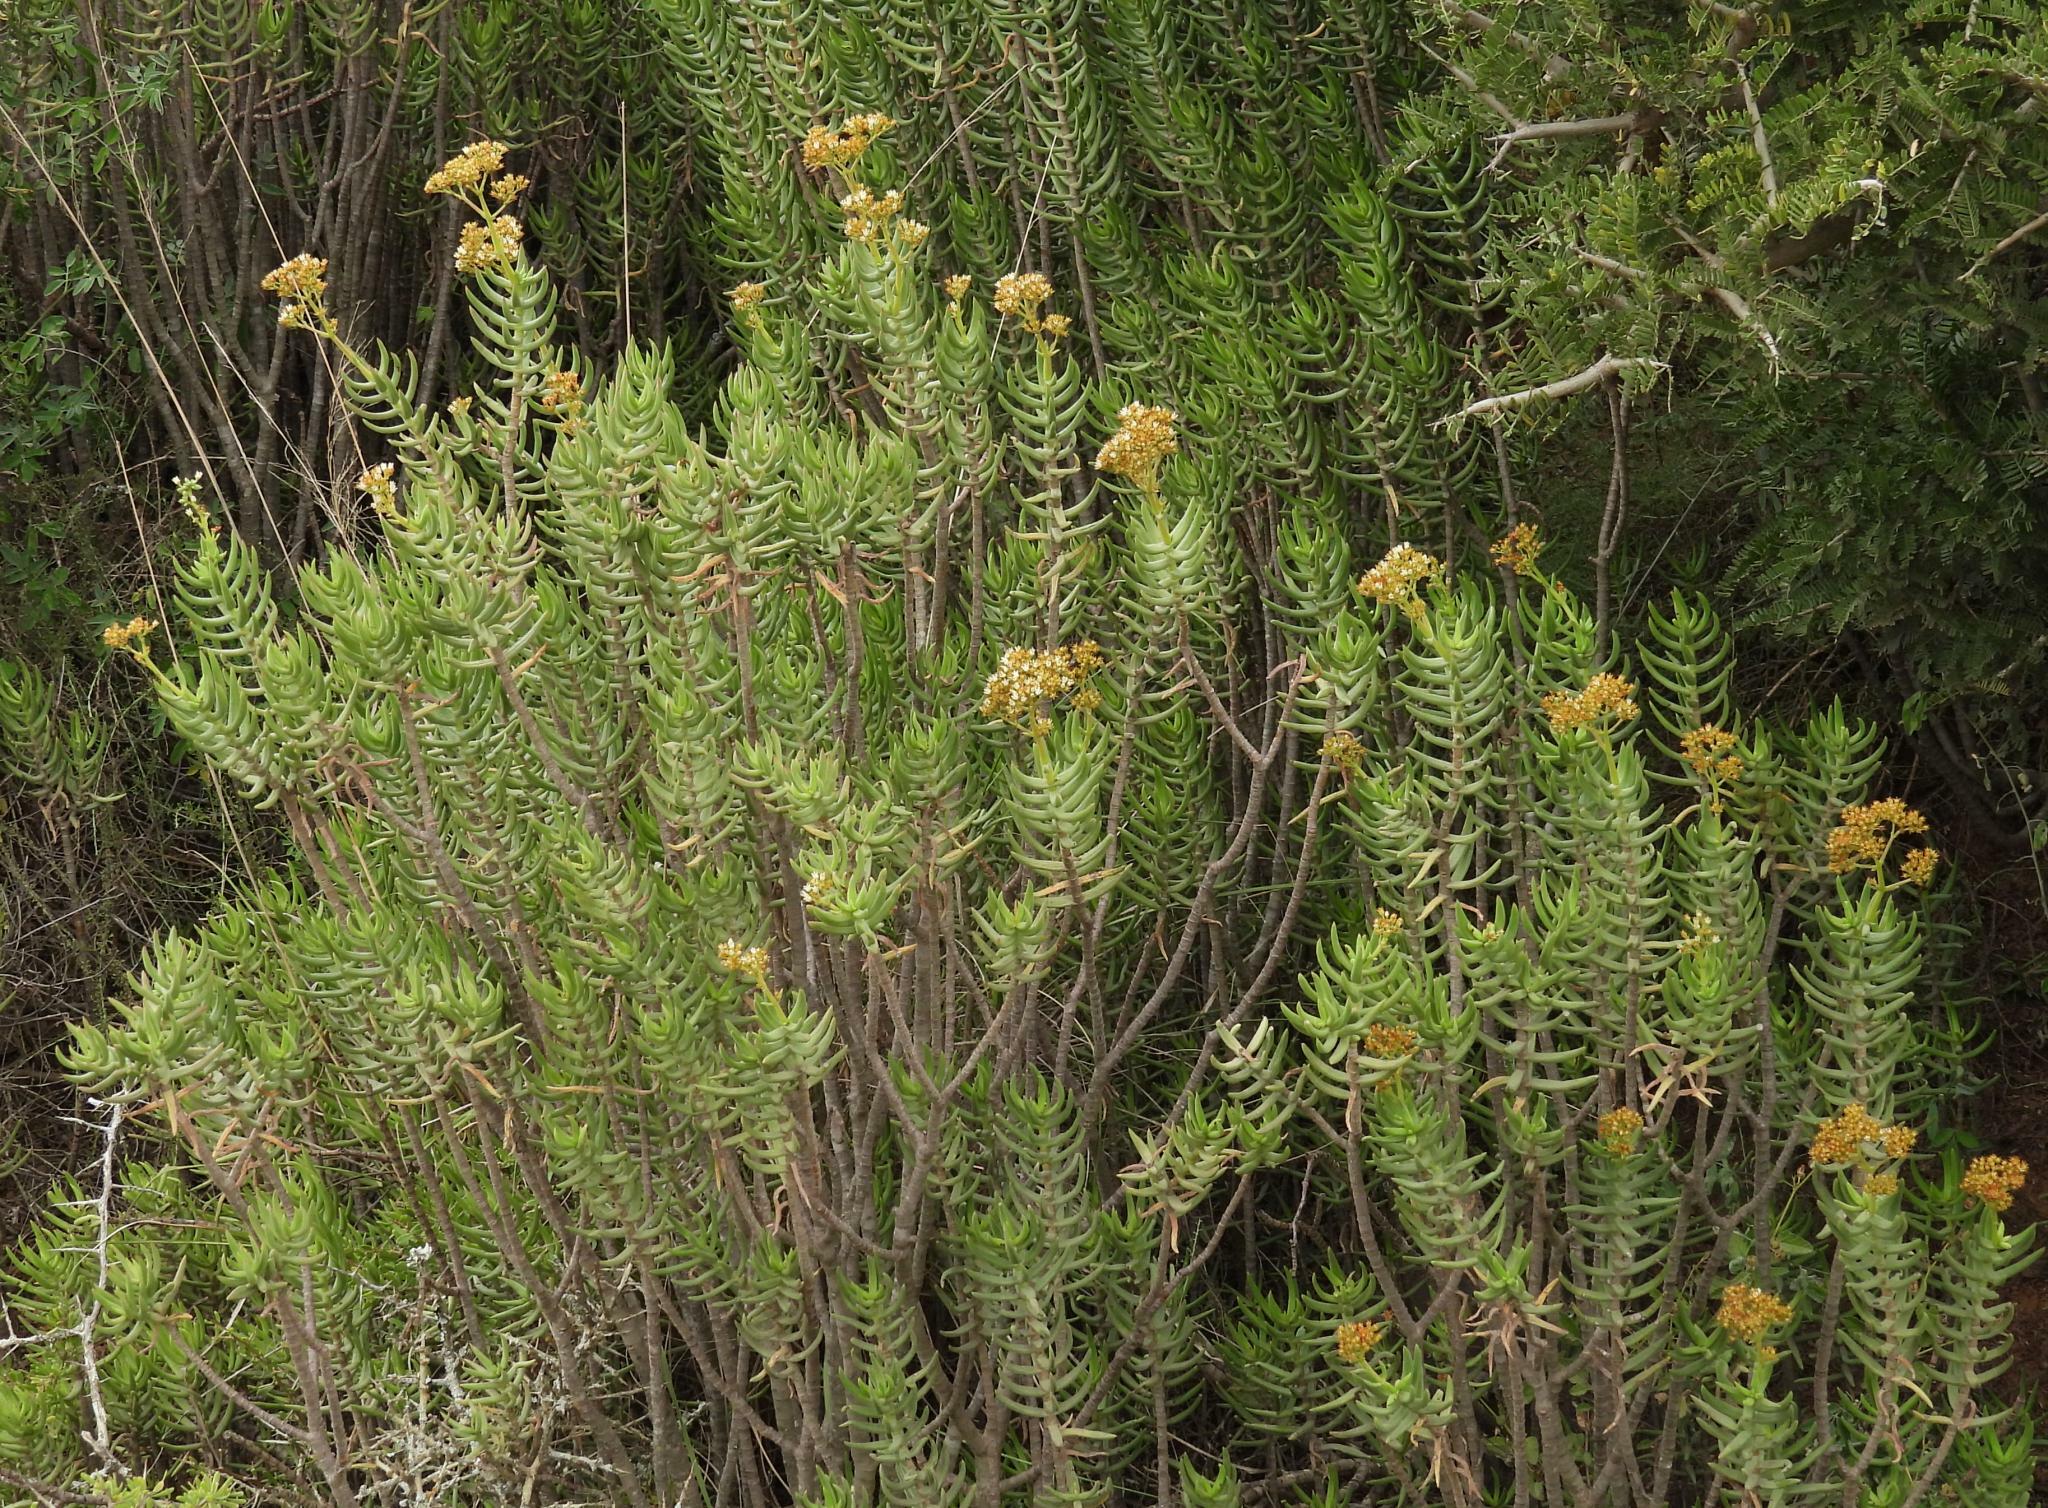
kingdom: Plantae
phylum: Tracheophyta
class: Magnoliopsida
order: Saxifragales
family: Crassulaceae
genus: Crassula
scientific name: Crassula tetragona
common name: Pygmyweed
